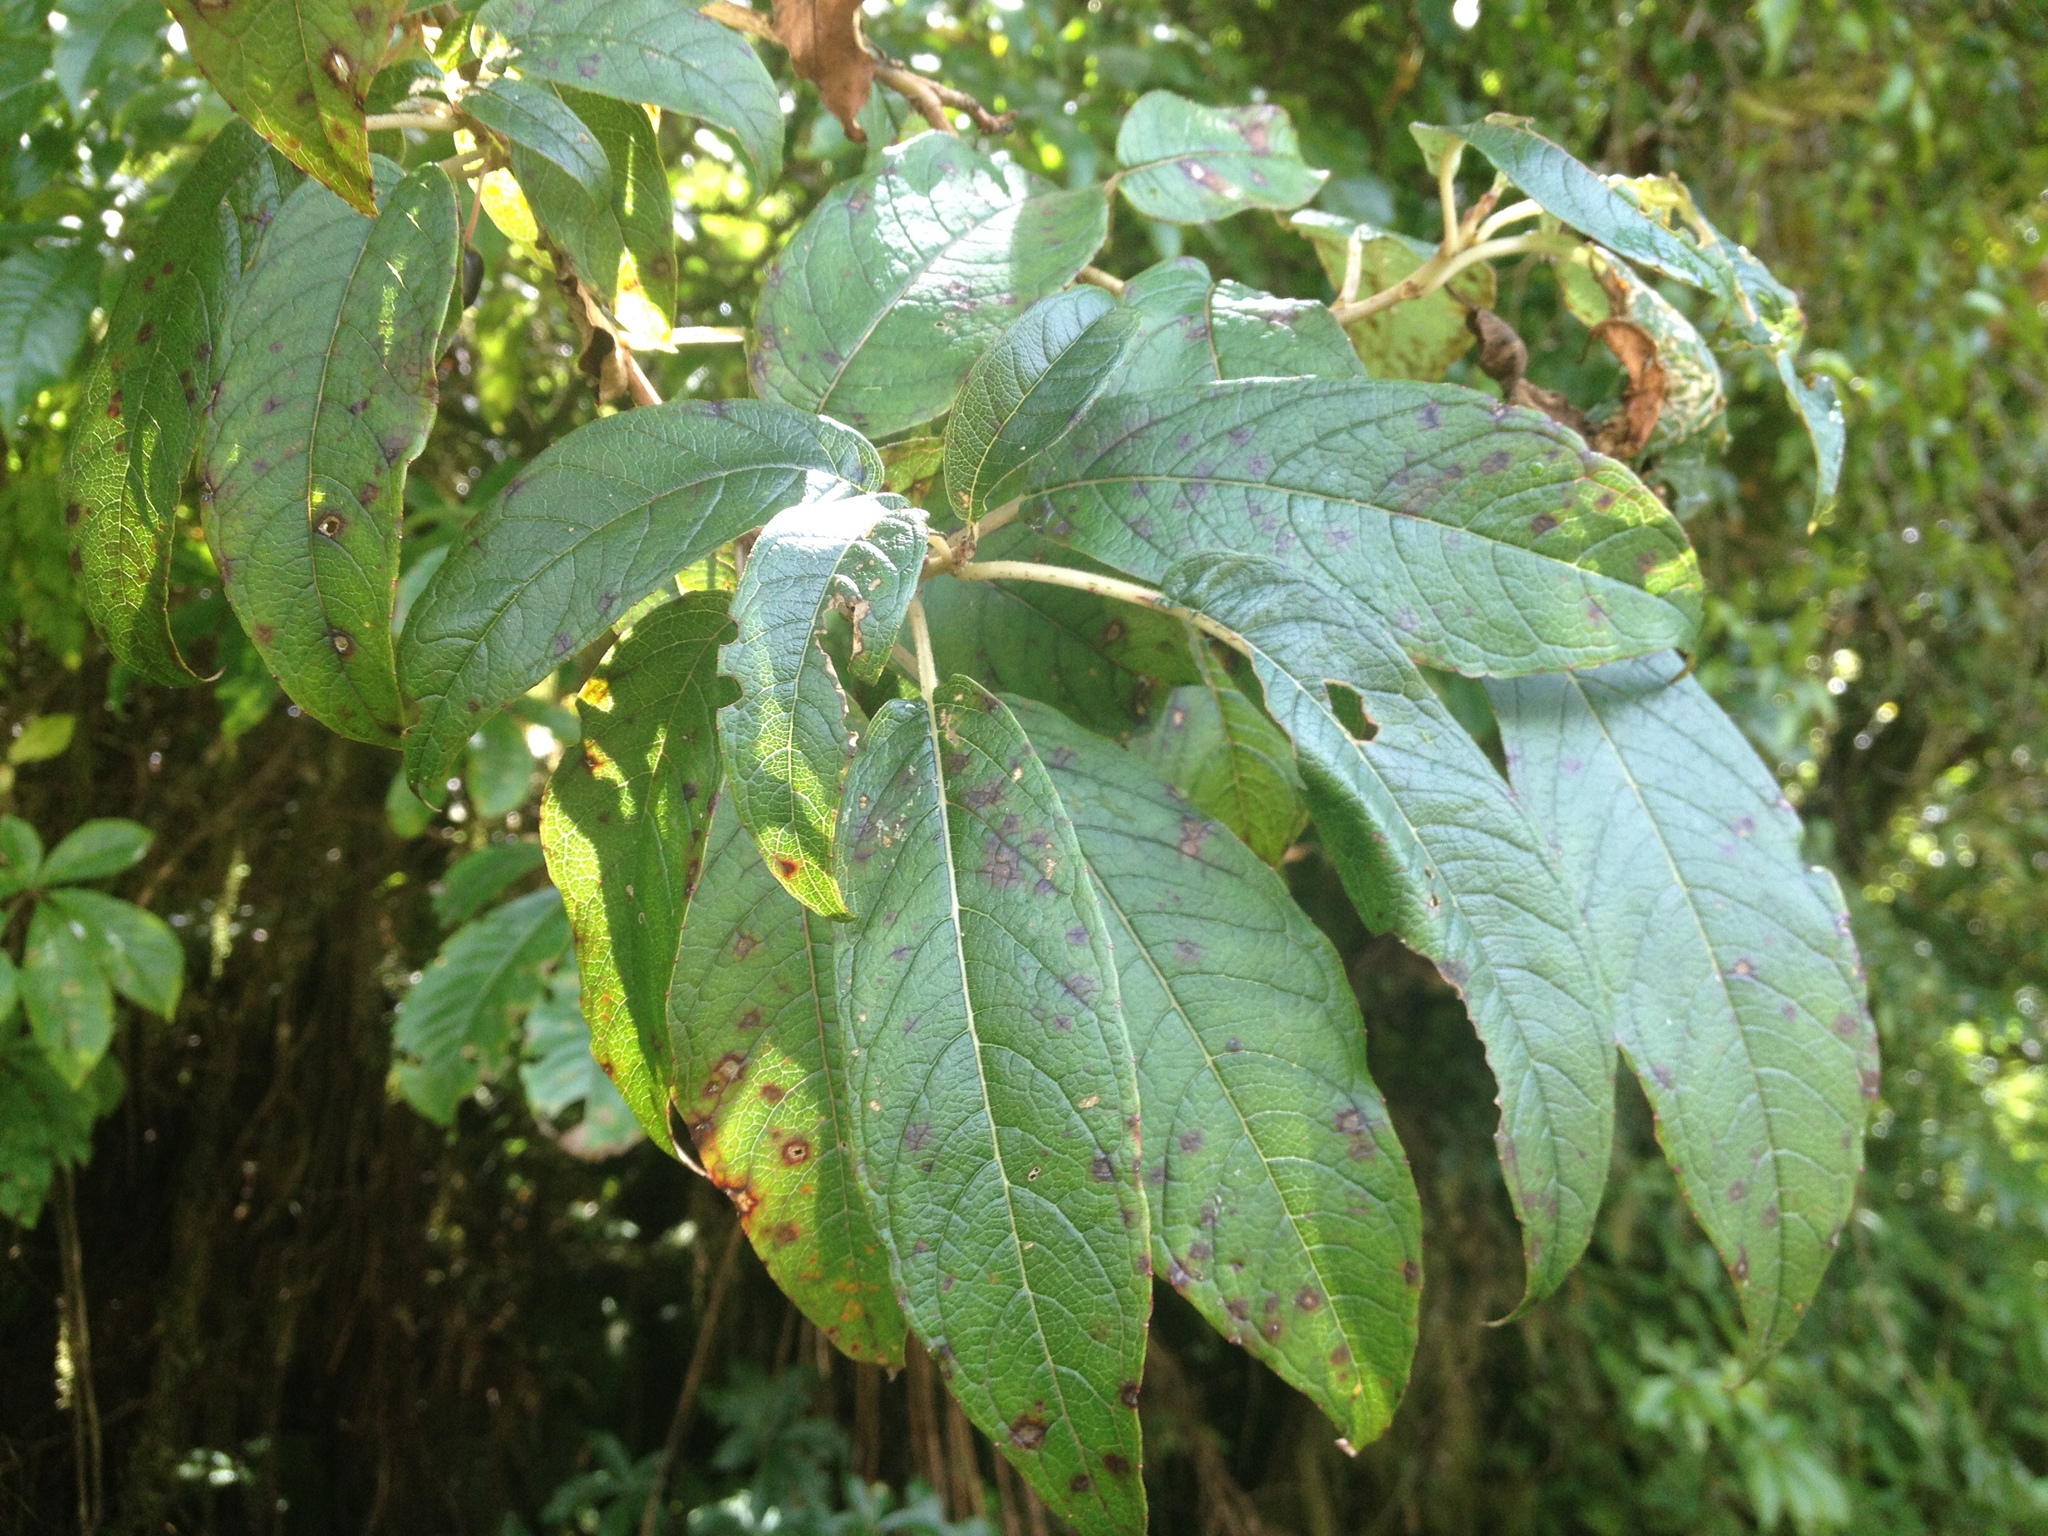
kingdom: Plantae
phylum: Tracheophyta
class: Magnoliopsida
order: Myrtales
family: Onagraceae
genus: Fuchsia
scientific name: Fuchsia excorticata
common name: Tree fuchsia
